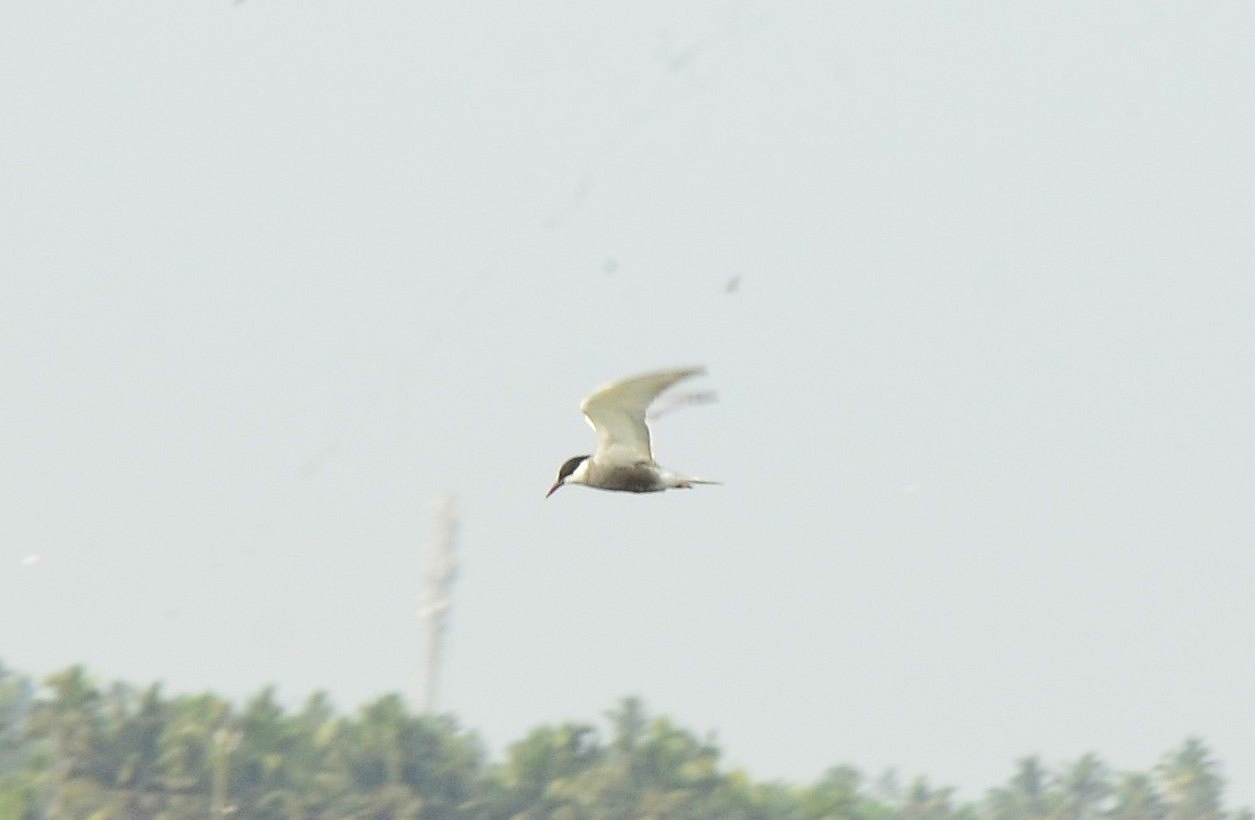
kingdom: Animalia
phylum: Chordata
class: Aves
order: Charadriiformes
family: Laridae
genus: Chlidonias
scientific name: Chlidonias hybrida
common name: Whiskered tern
